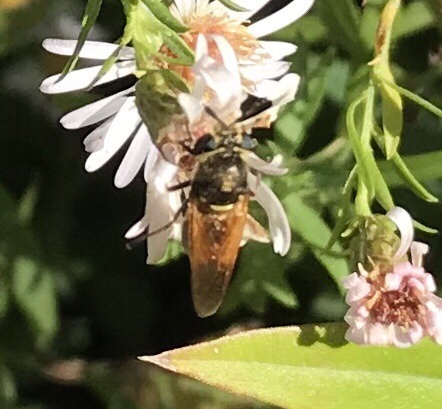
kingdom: Animalia
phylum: Arthropoda
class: Insecta
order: Diptera
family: Stratiomyidae
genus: Hoplitimyia
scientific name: Hoplitimyia mutabilis
